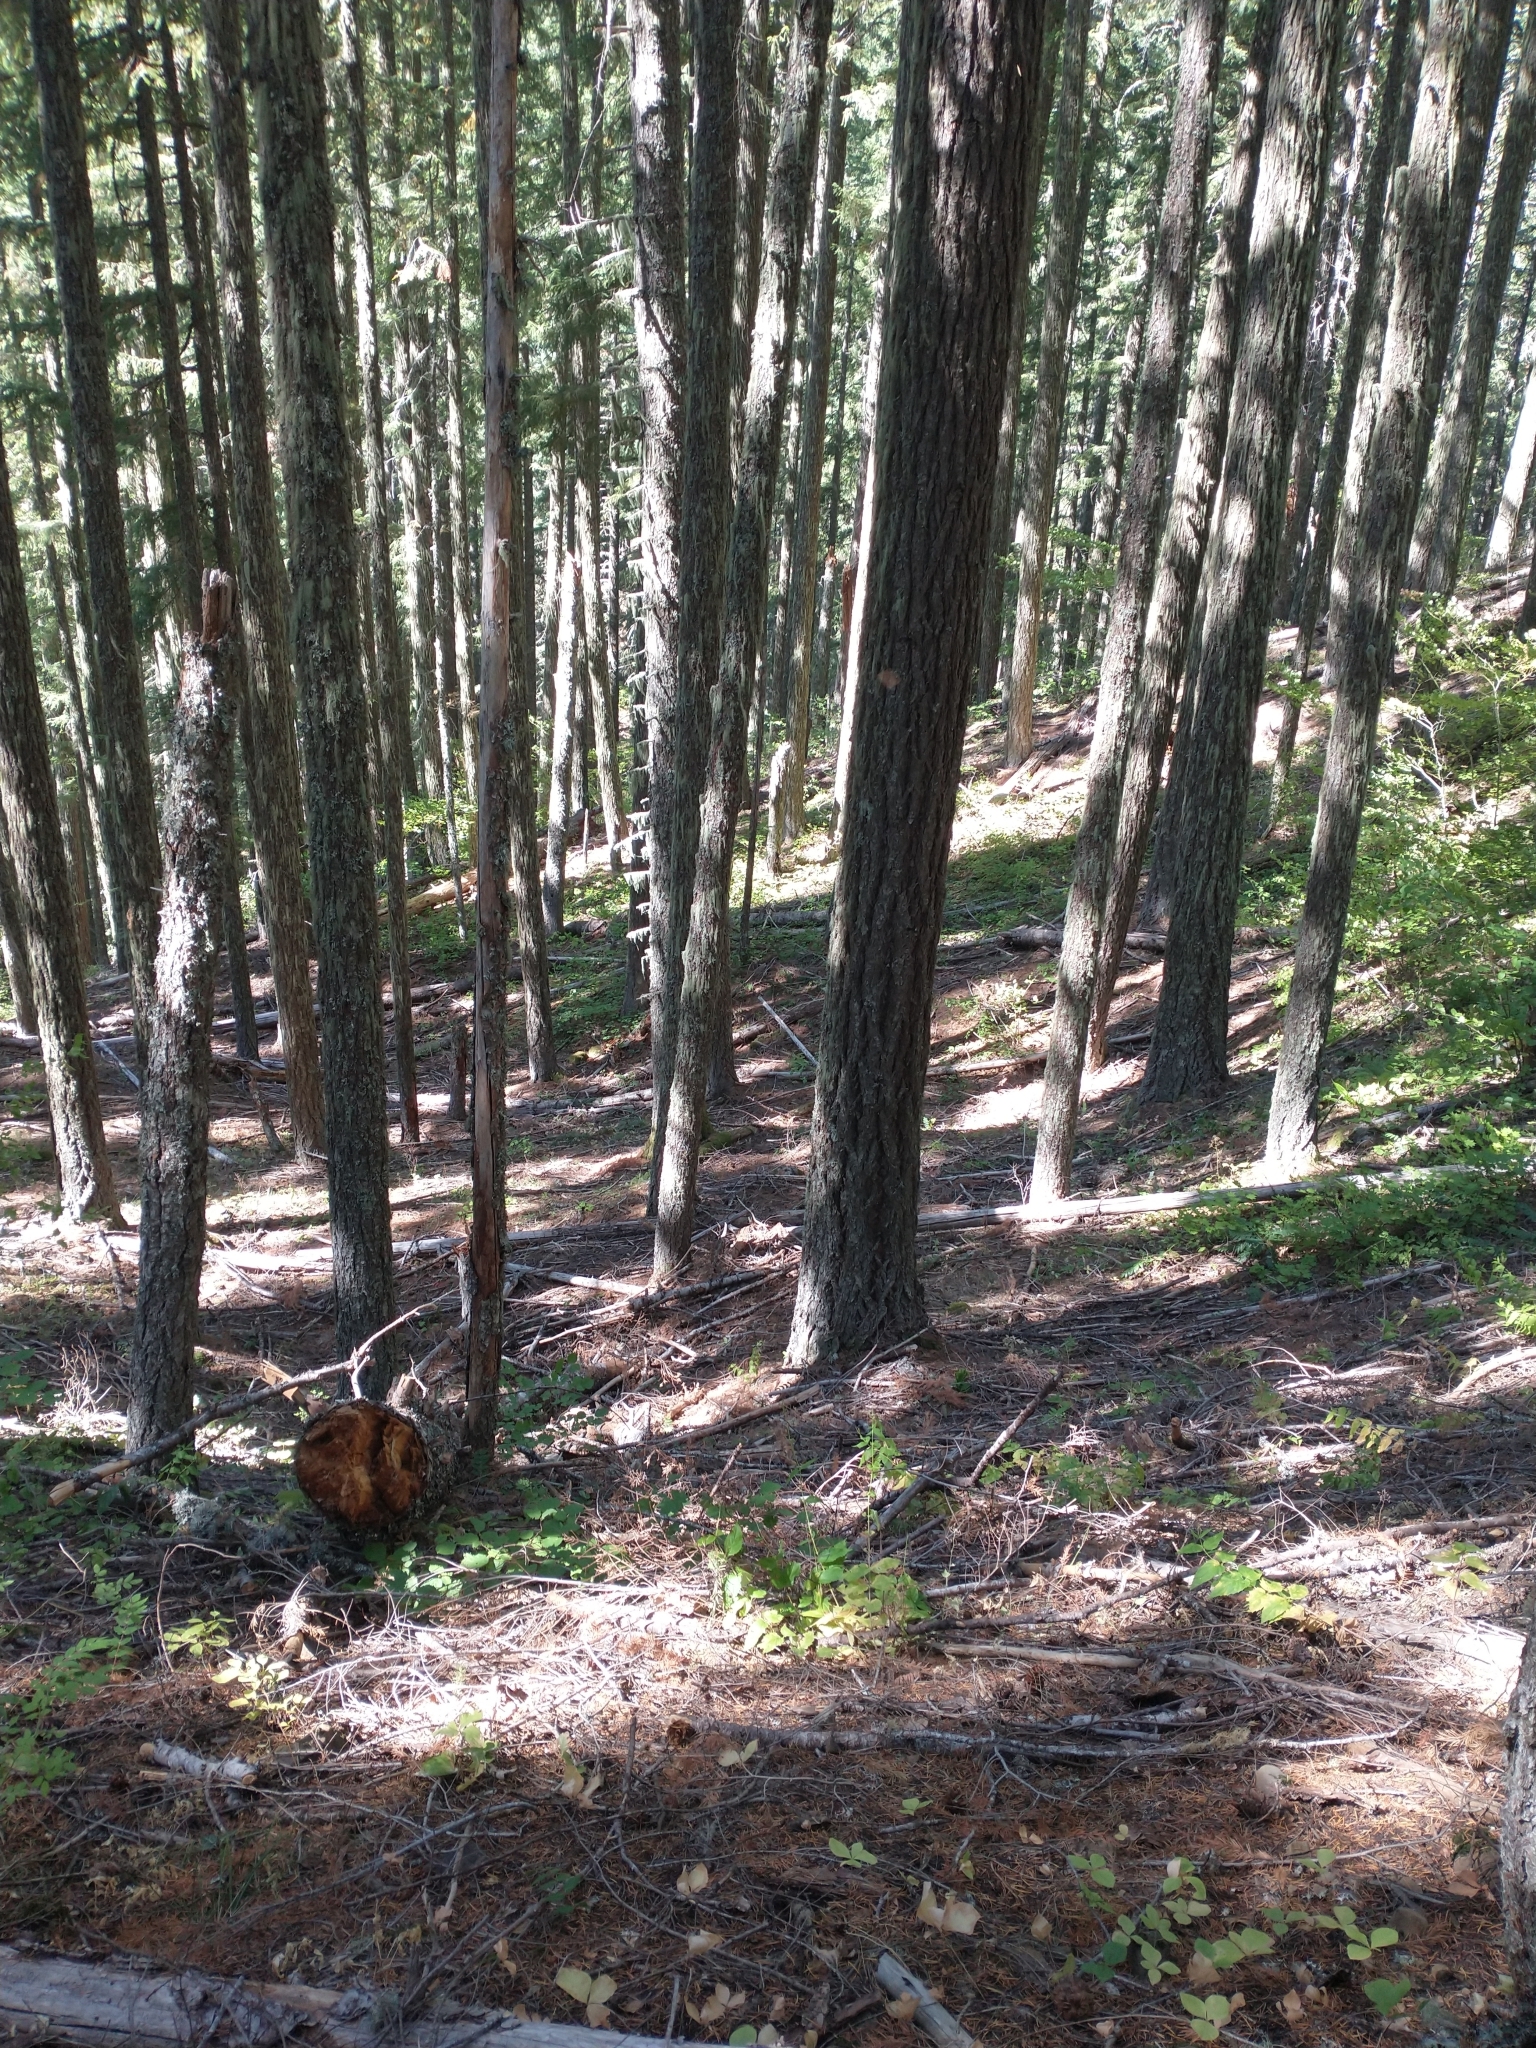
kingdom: Plantae
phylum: Tracheophyta
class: Pinopsida
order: Pinales
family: Pinaceae
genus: Pseudotsuga
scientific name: Pseudotsuga menziesii
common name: Douglas fir
